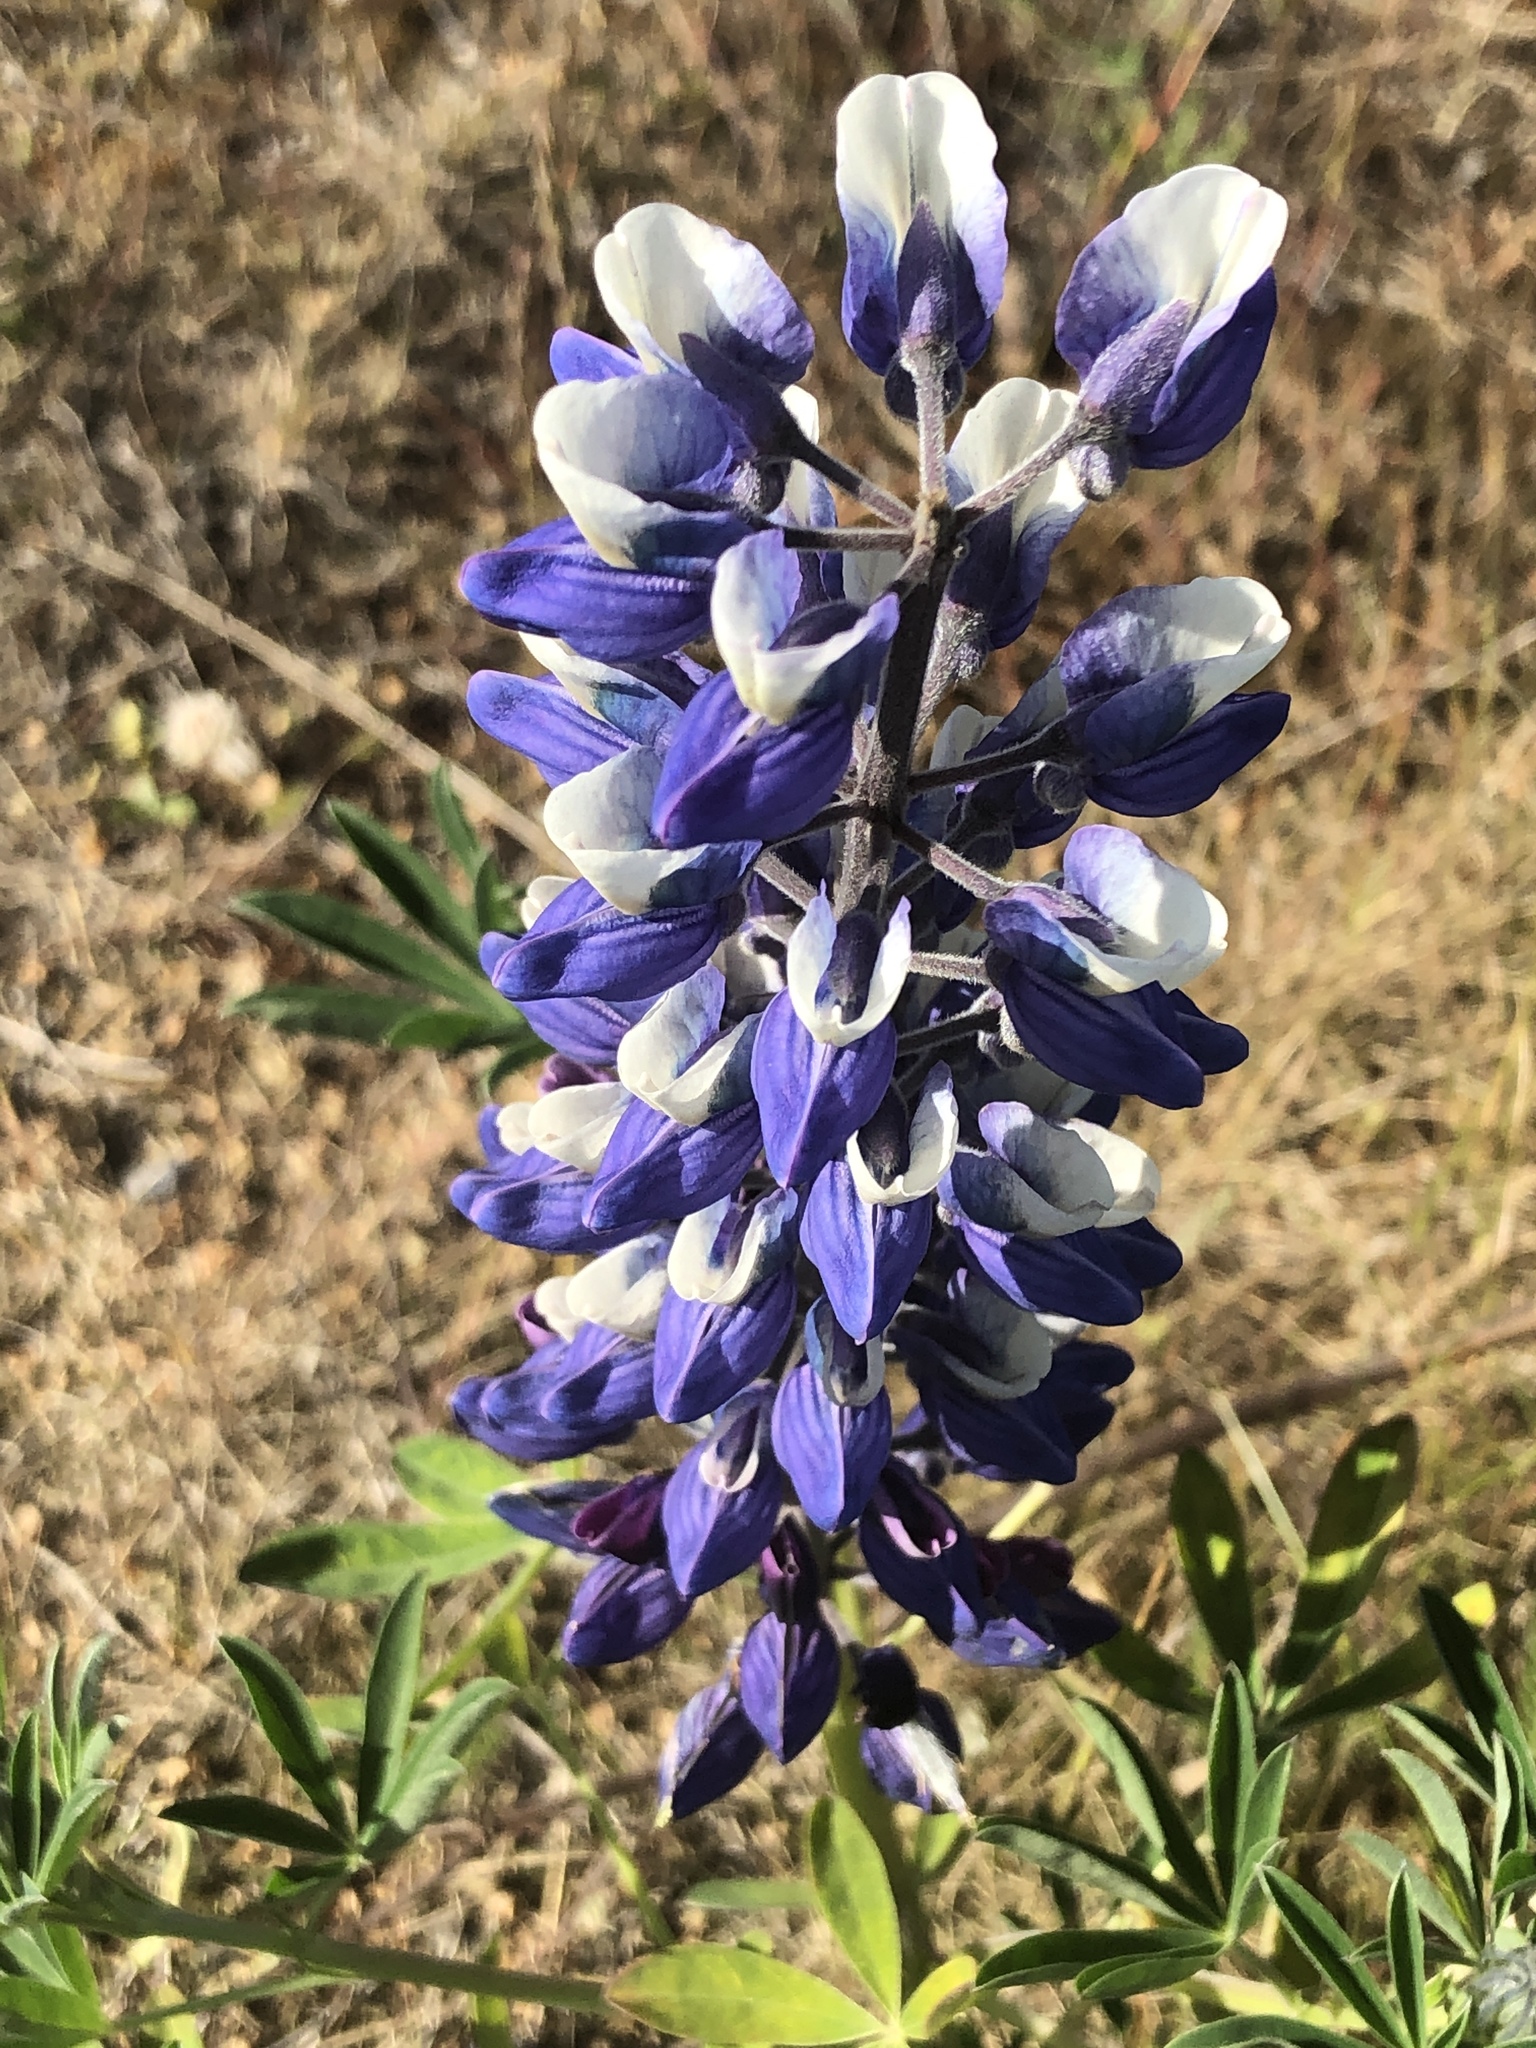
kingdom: Plantae
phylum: Tracheophyta
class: Magnoliopsida
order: Fabales
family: Fabaceae
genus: Lupinus
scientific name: Lupinus nootkatensis
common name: Nootka lupine
